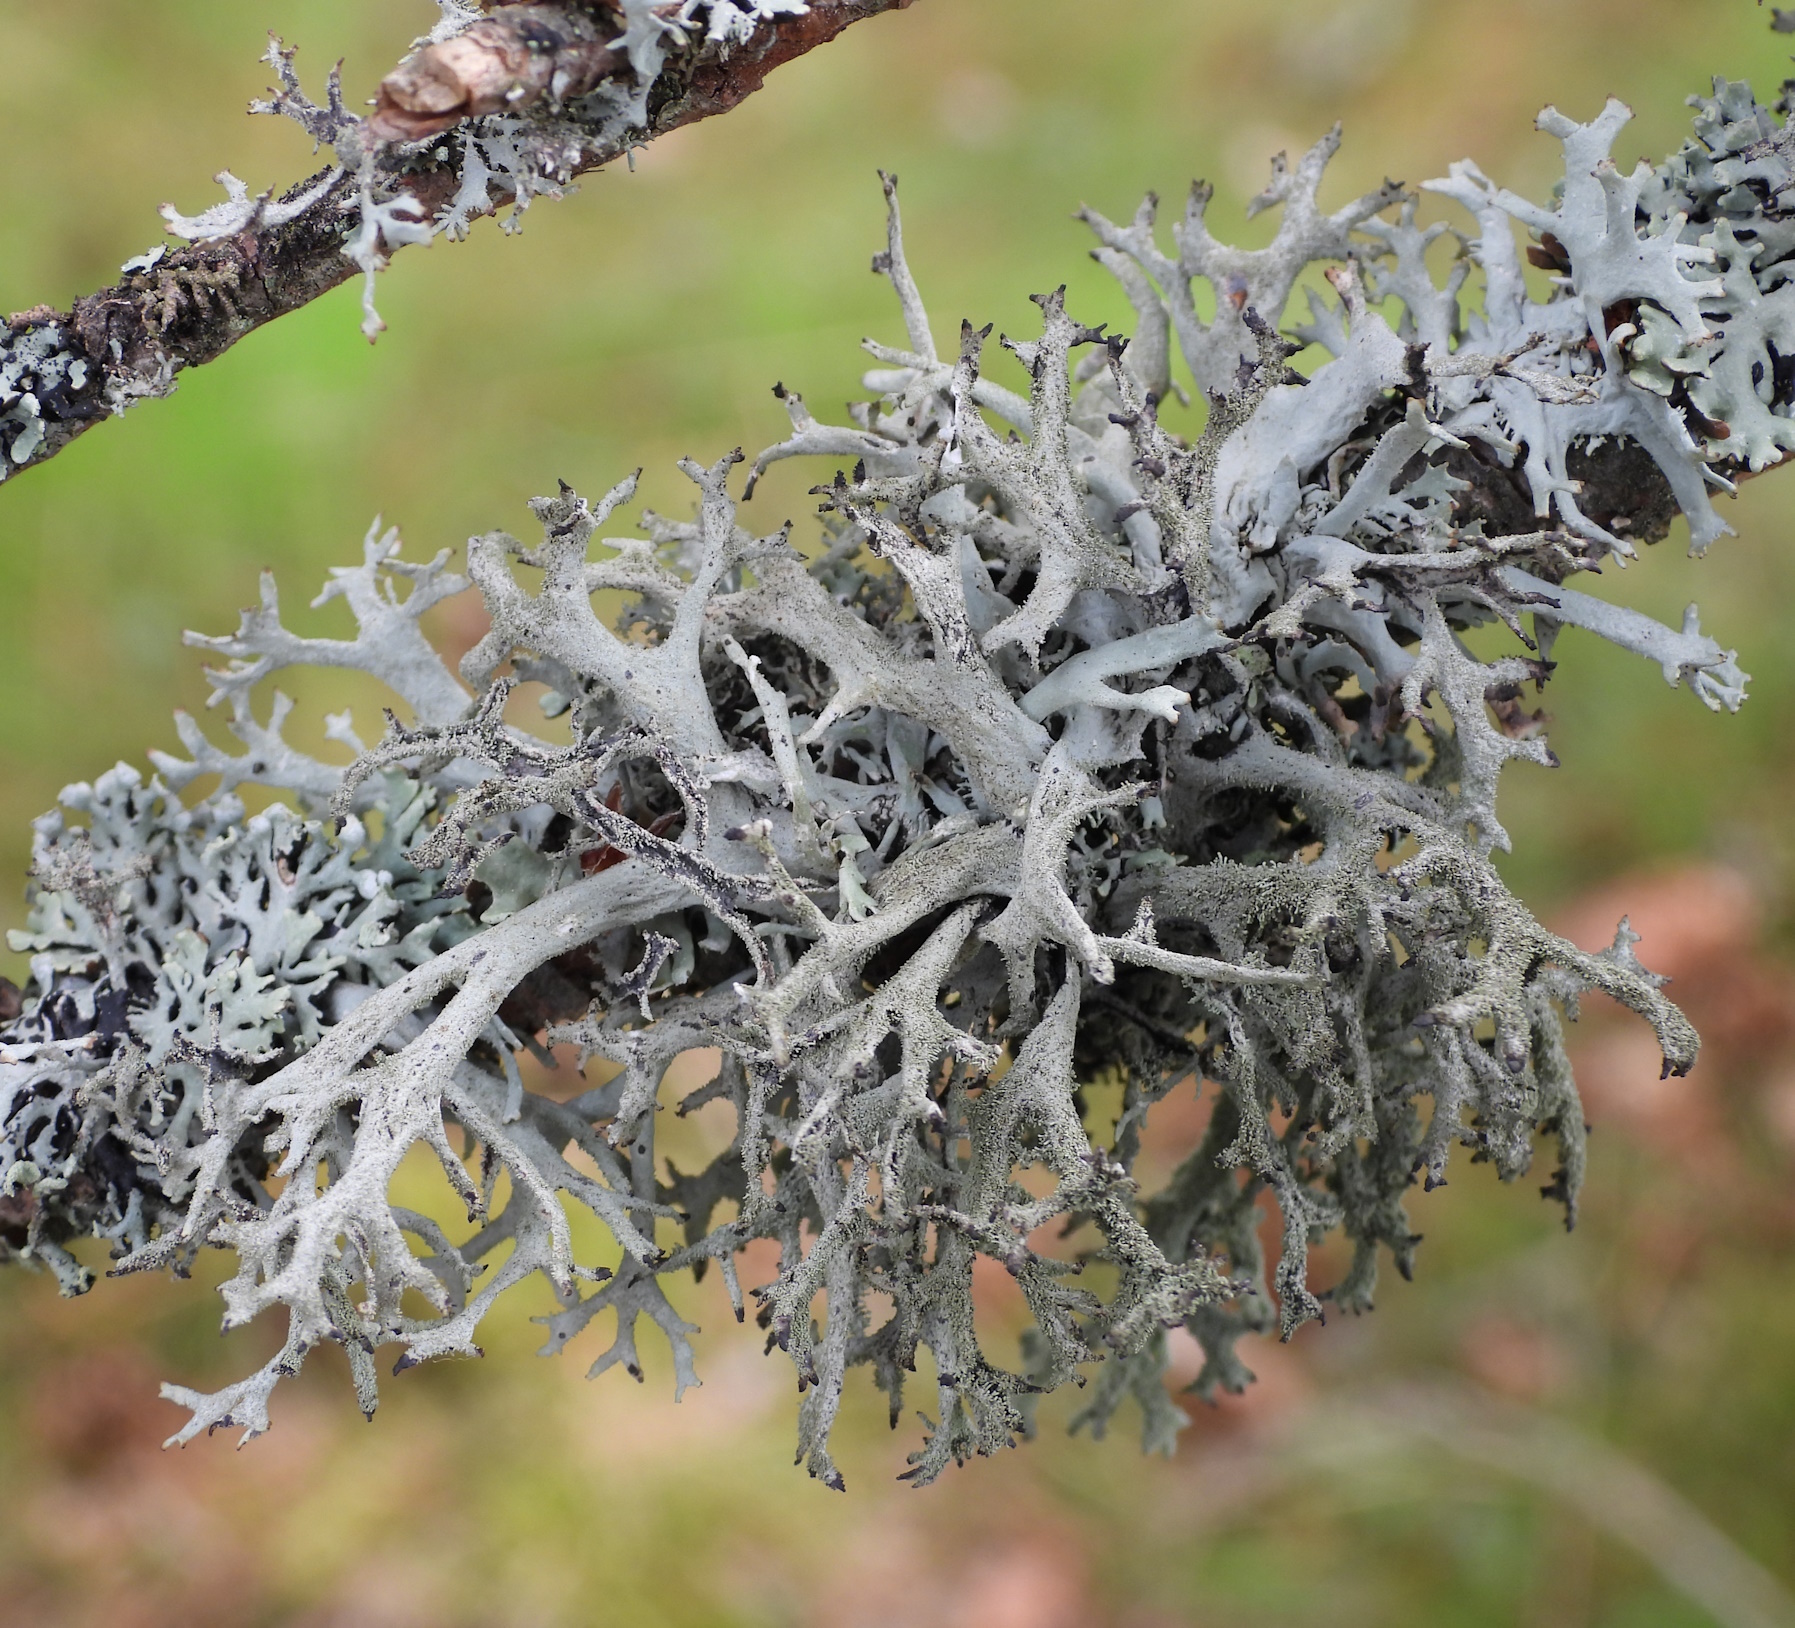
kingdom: Fungi
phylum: Ascomycota
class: Lecanoromycetes
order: Lecanorales
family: Parmeliaceae
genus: Pseudevernia
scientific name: Pseudevernia furfuracea
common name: Tree moss
